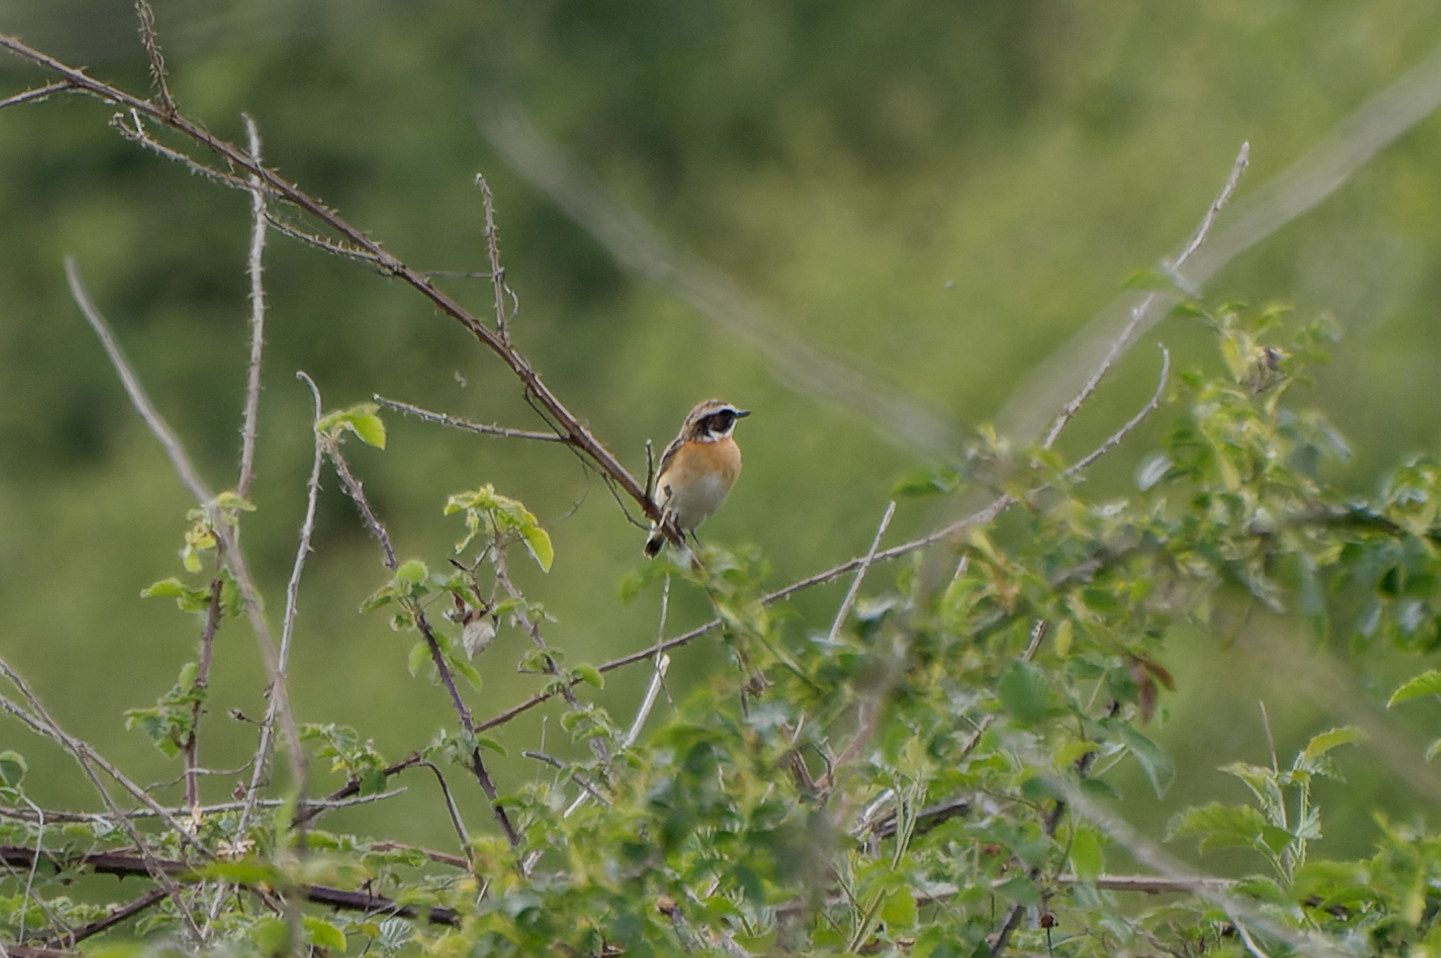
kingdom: Animalia
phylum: Chordata
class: Aves
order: Passeriformes
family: Muscicapidae
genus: Saxicola
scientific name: Saxicola rubetra
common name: Whinchat
